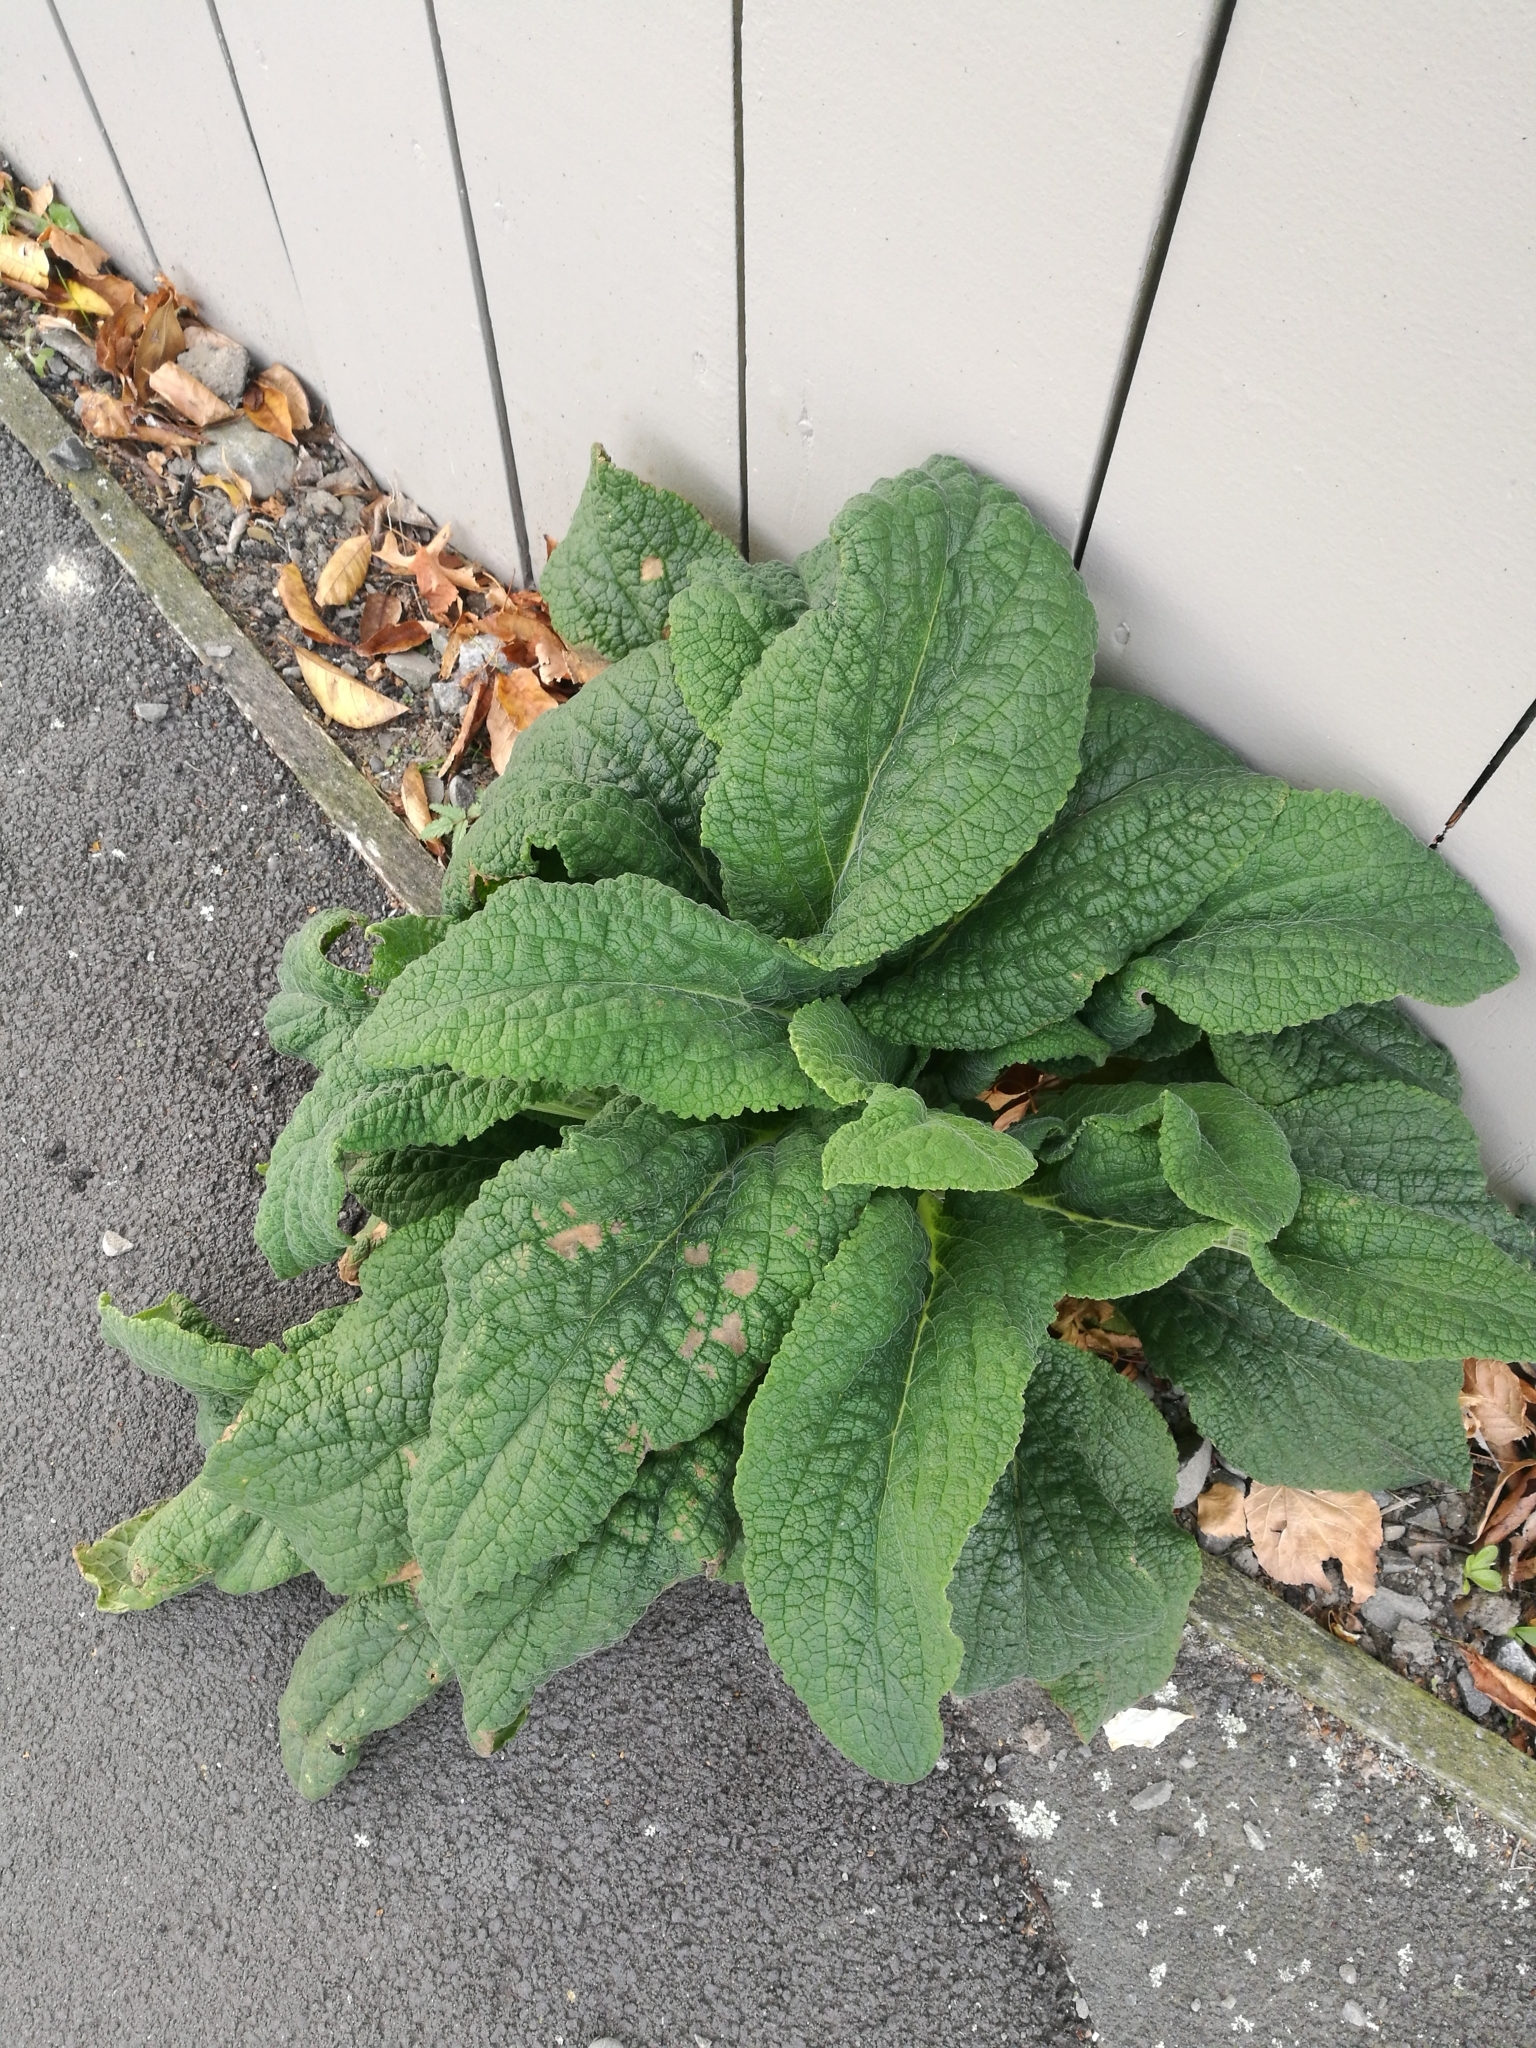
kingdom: Plantae
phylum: Tracheophyta
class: Magnoliopsida
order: Lamiales
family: Plantaginaceae
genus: Digitalis
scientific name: Digitalis purpurea
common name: Foxglove
